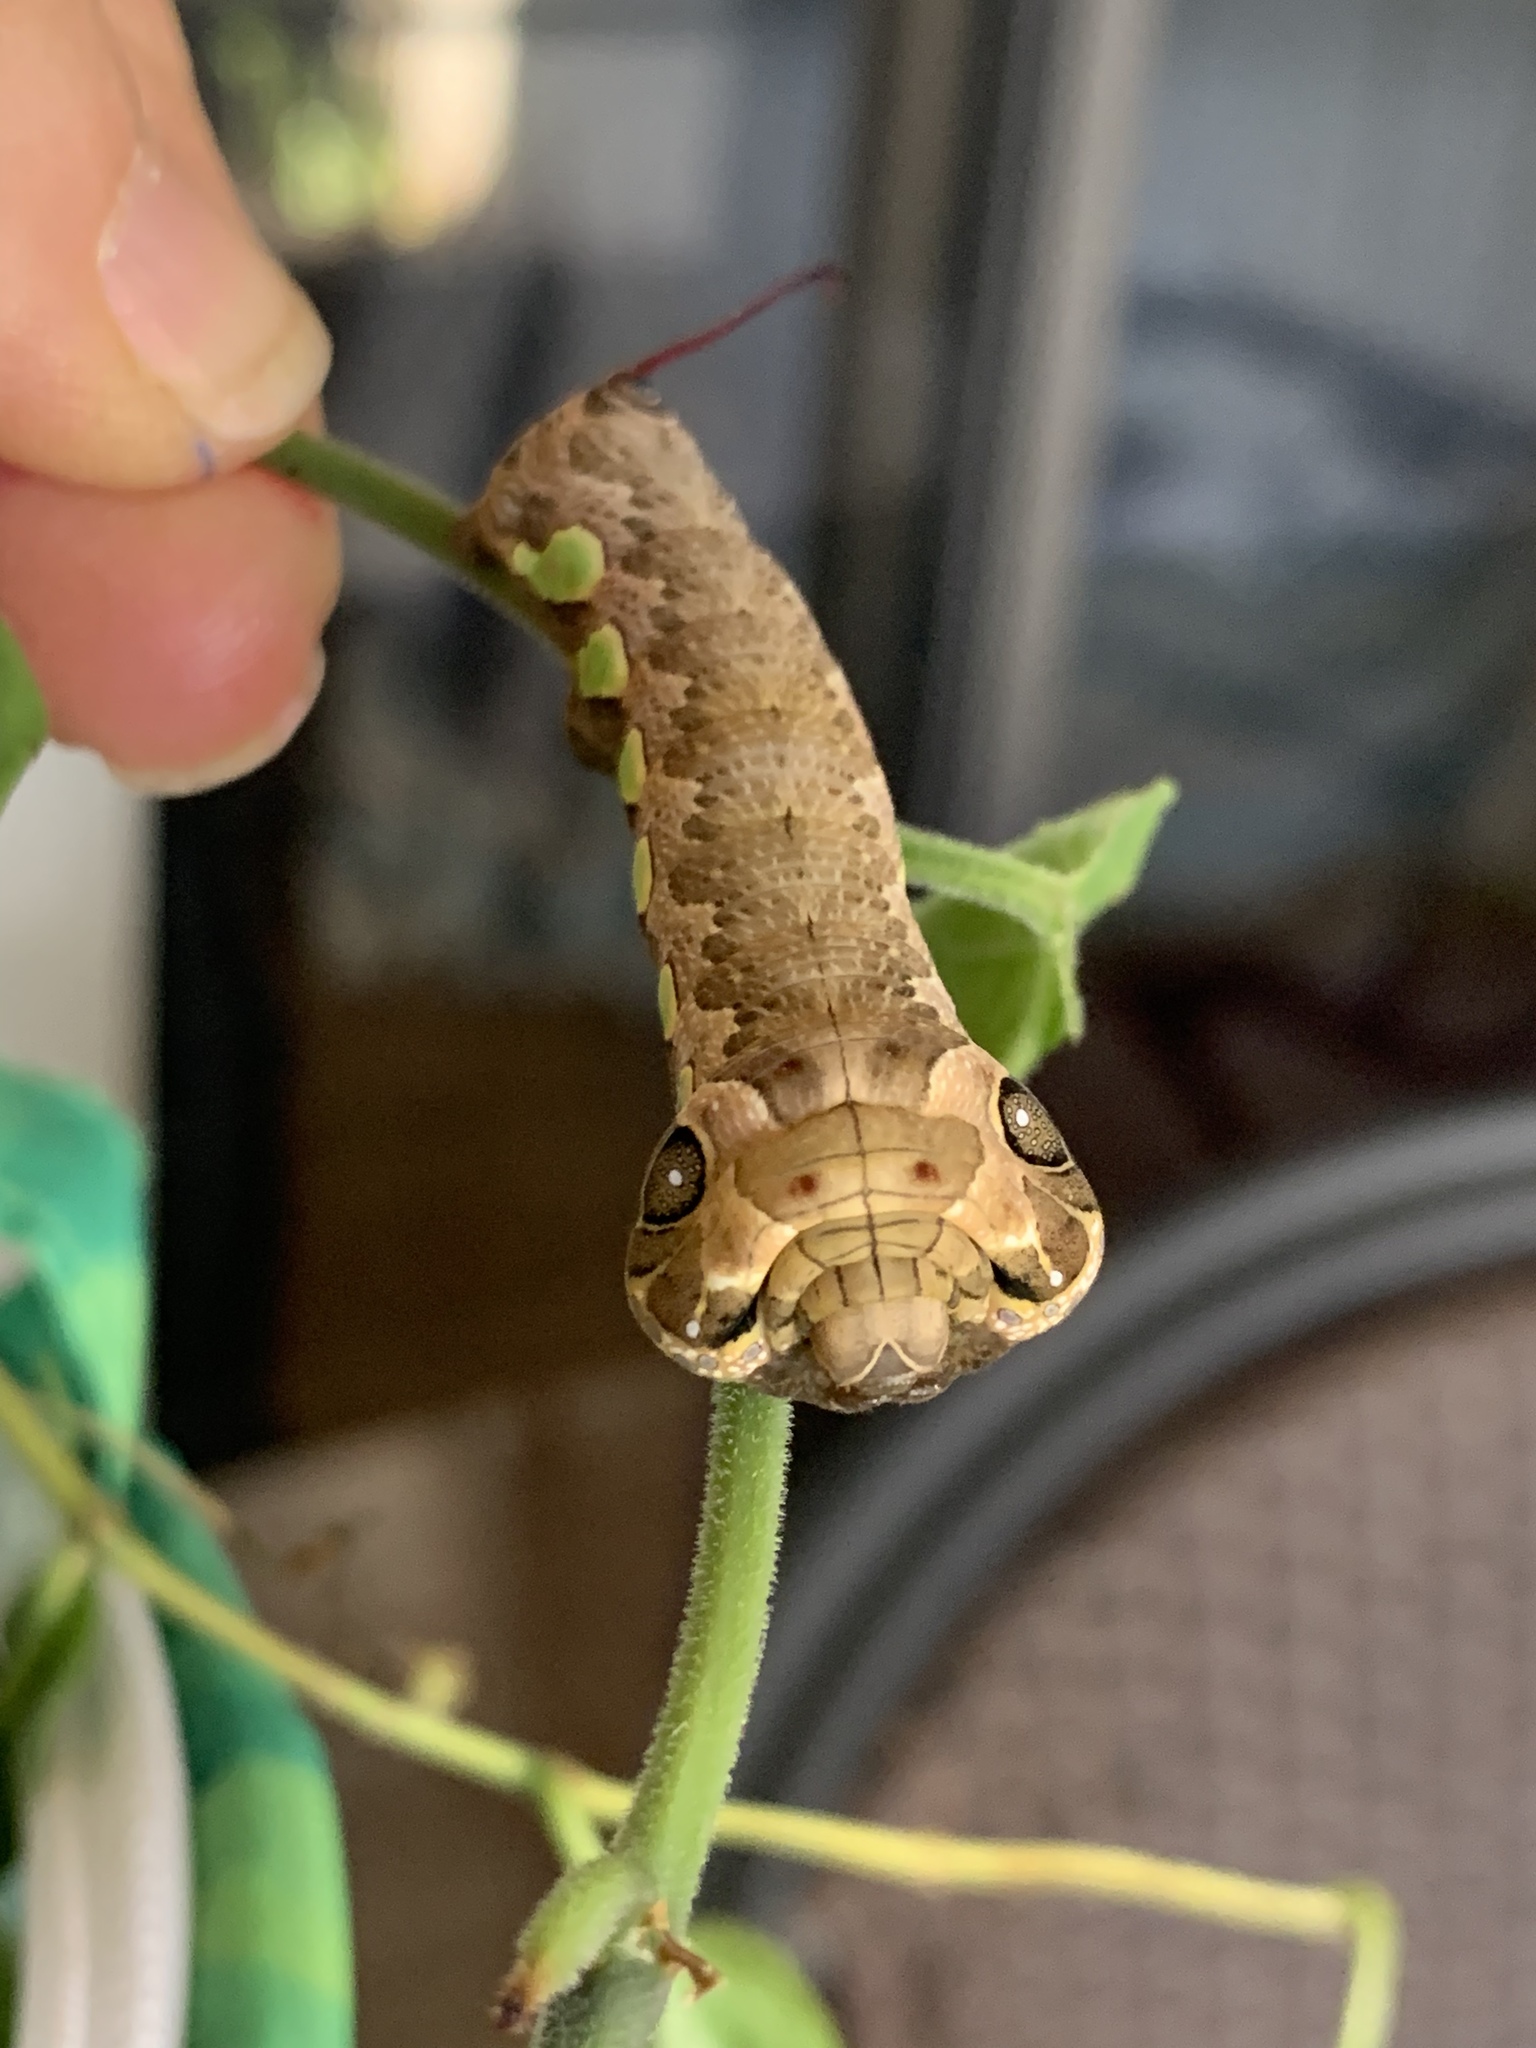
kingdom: Animalia
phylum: Arthropoda
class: Insecta
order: Lepidoptera
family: Sphingidae
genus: Eumorpha
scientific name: Eumorpha labruscae
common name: Gaudy sphinx
